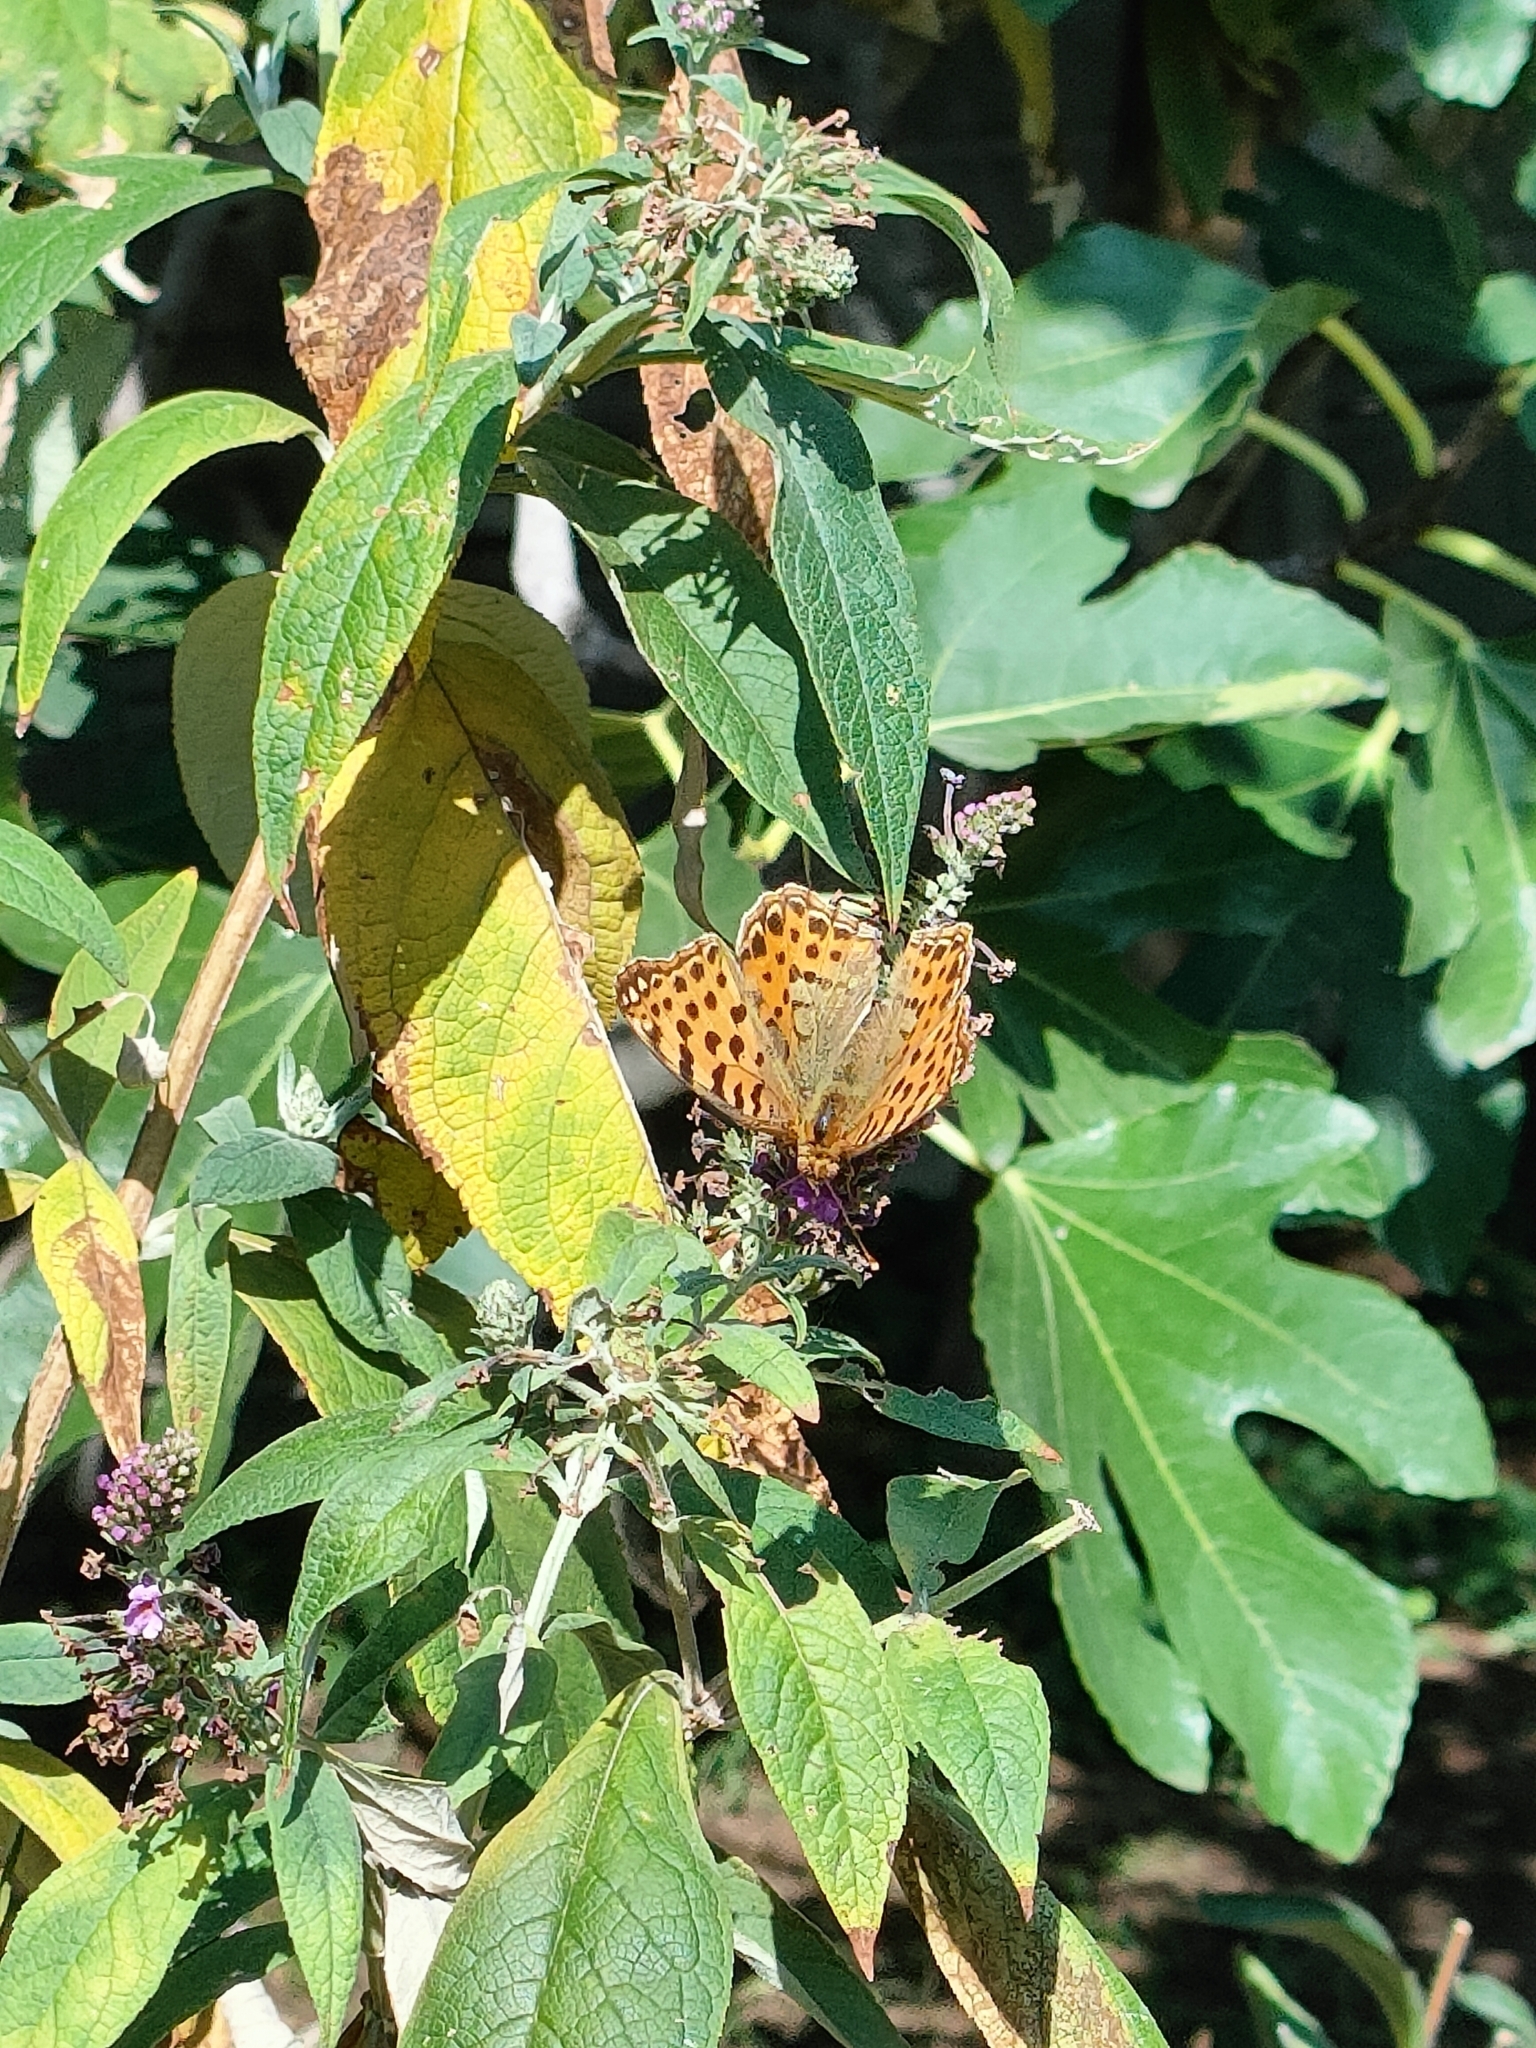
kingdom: Animalia
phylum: Arthropoda
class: Insecta
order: Lepidoptera
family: Nymphalidae
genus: Issoria
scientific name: Issoria lathonia
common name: Queen of spain fritillary
